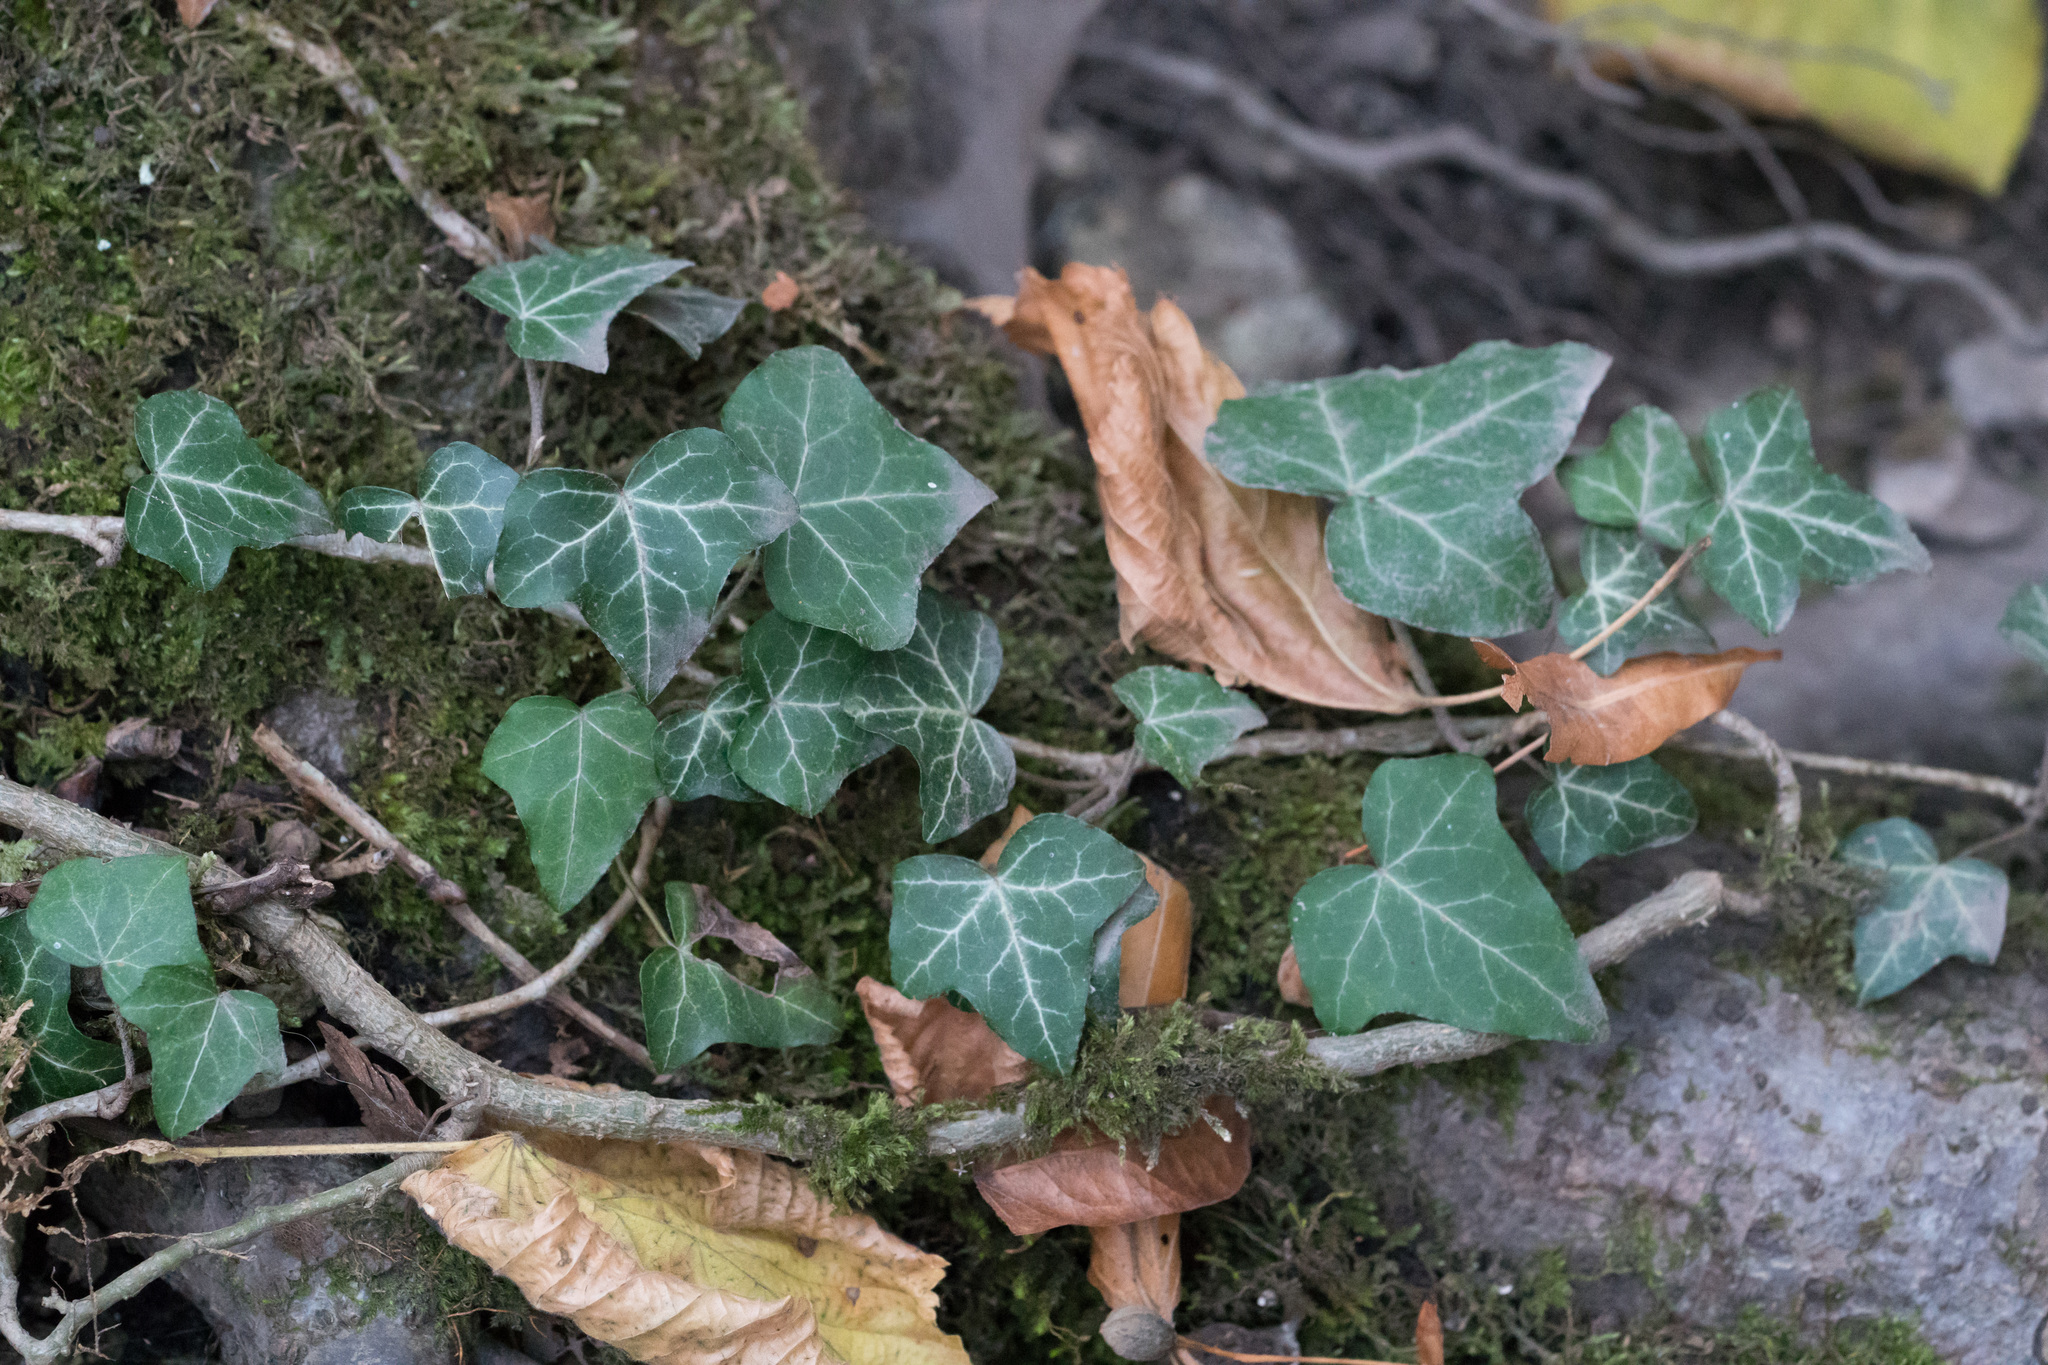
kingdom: Plantae
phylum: Tracheophyta
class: Magnoliopsida
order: Apiales
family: Araliaceae
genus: Hedera
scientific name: Hedera helix
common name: Ivy
